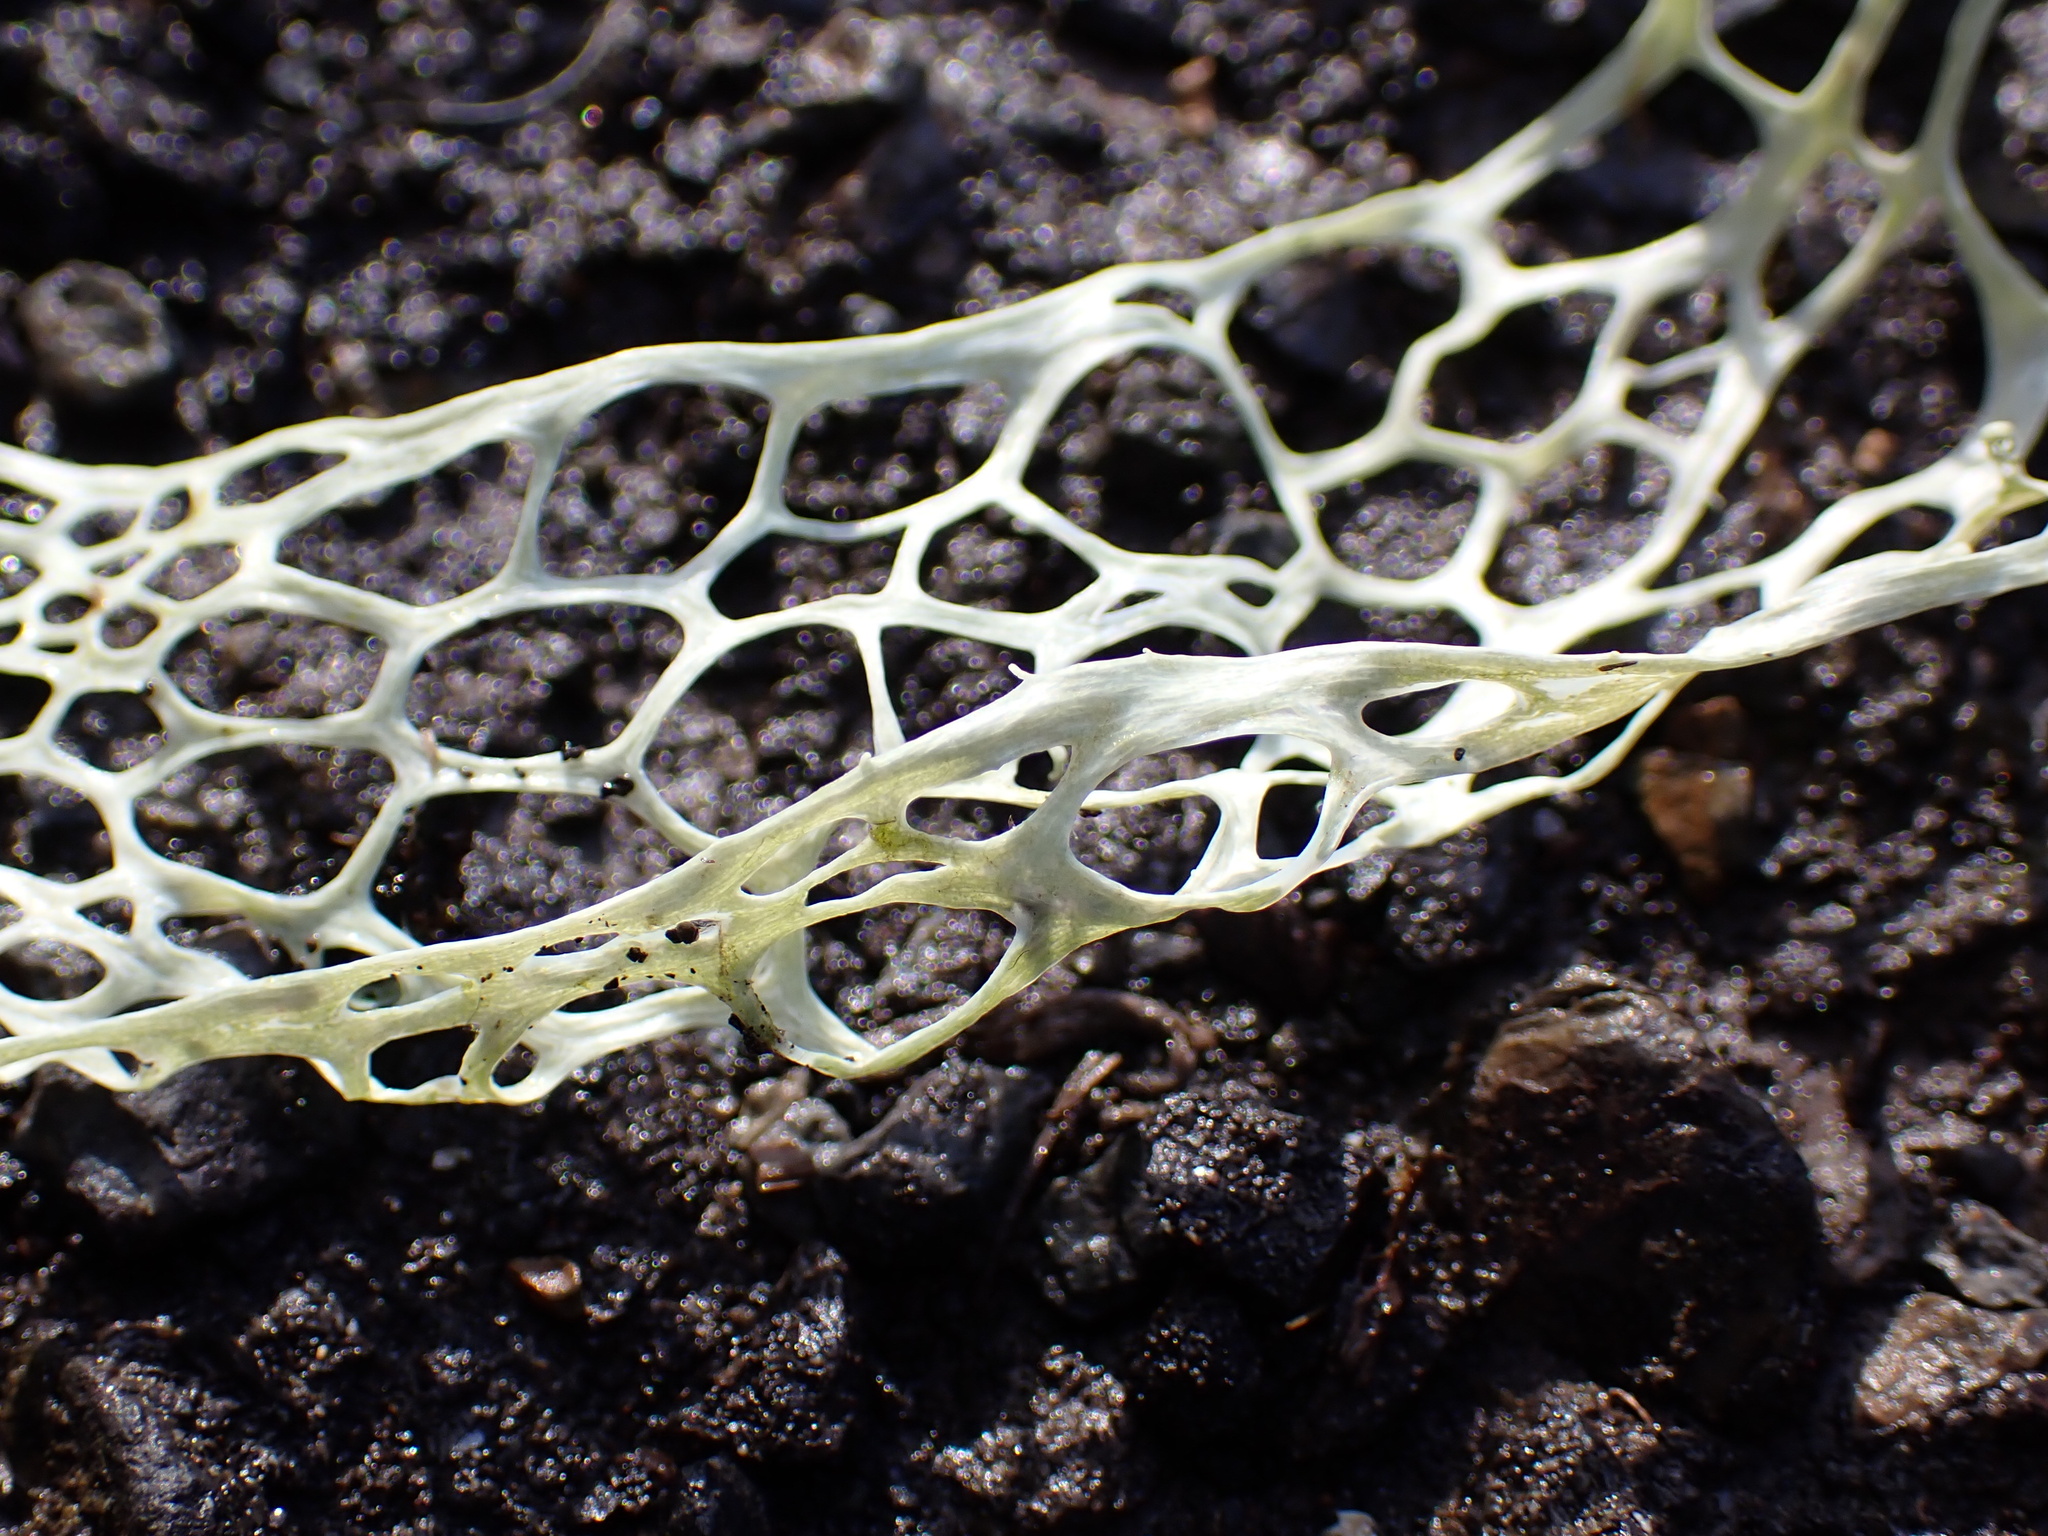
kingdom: Fungi
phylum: Ascomycota
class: Lecanoromycetes
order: Lecanorales
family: Ramalinaceae
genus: Ramalina
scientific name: Ramalina menziesii
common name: Lace lichen
